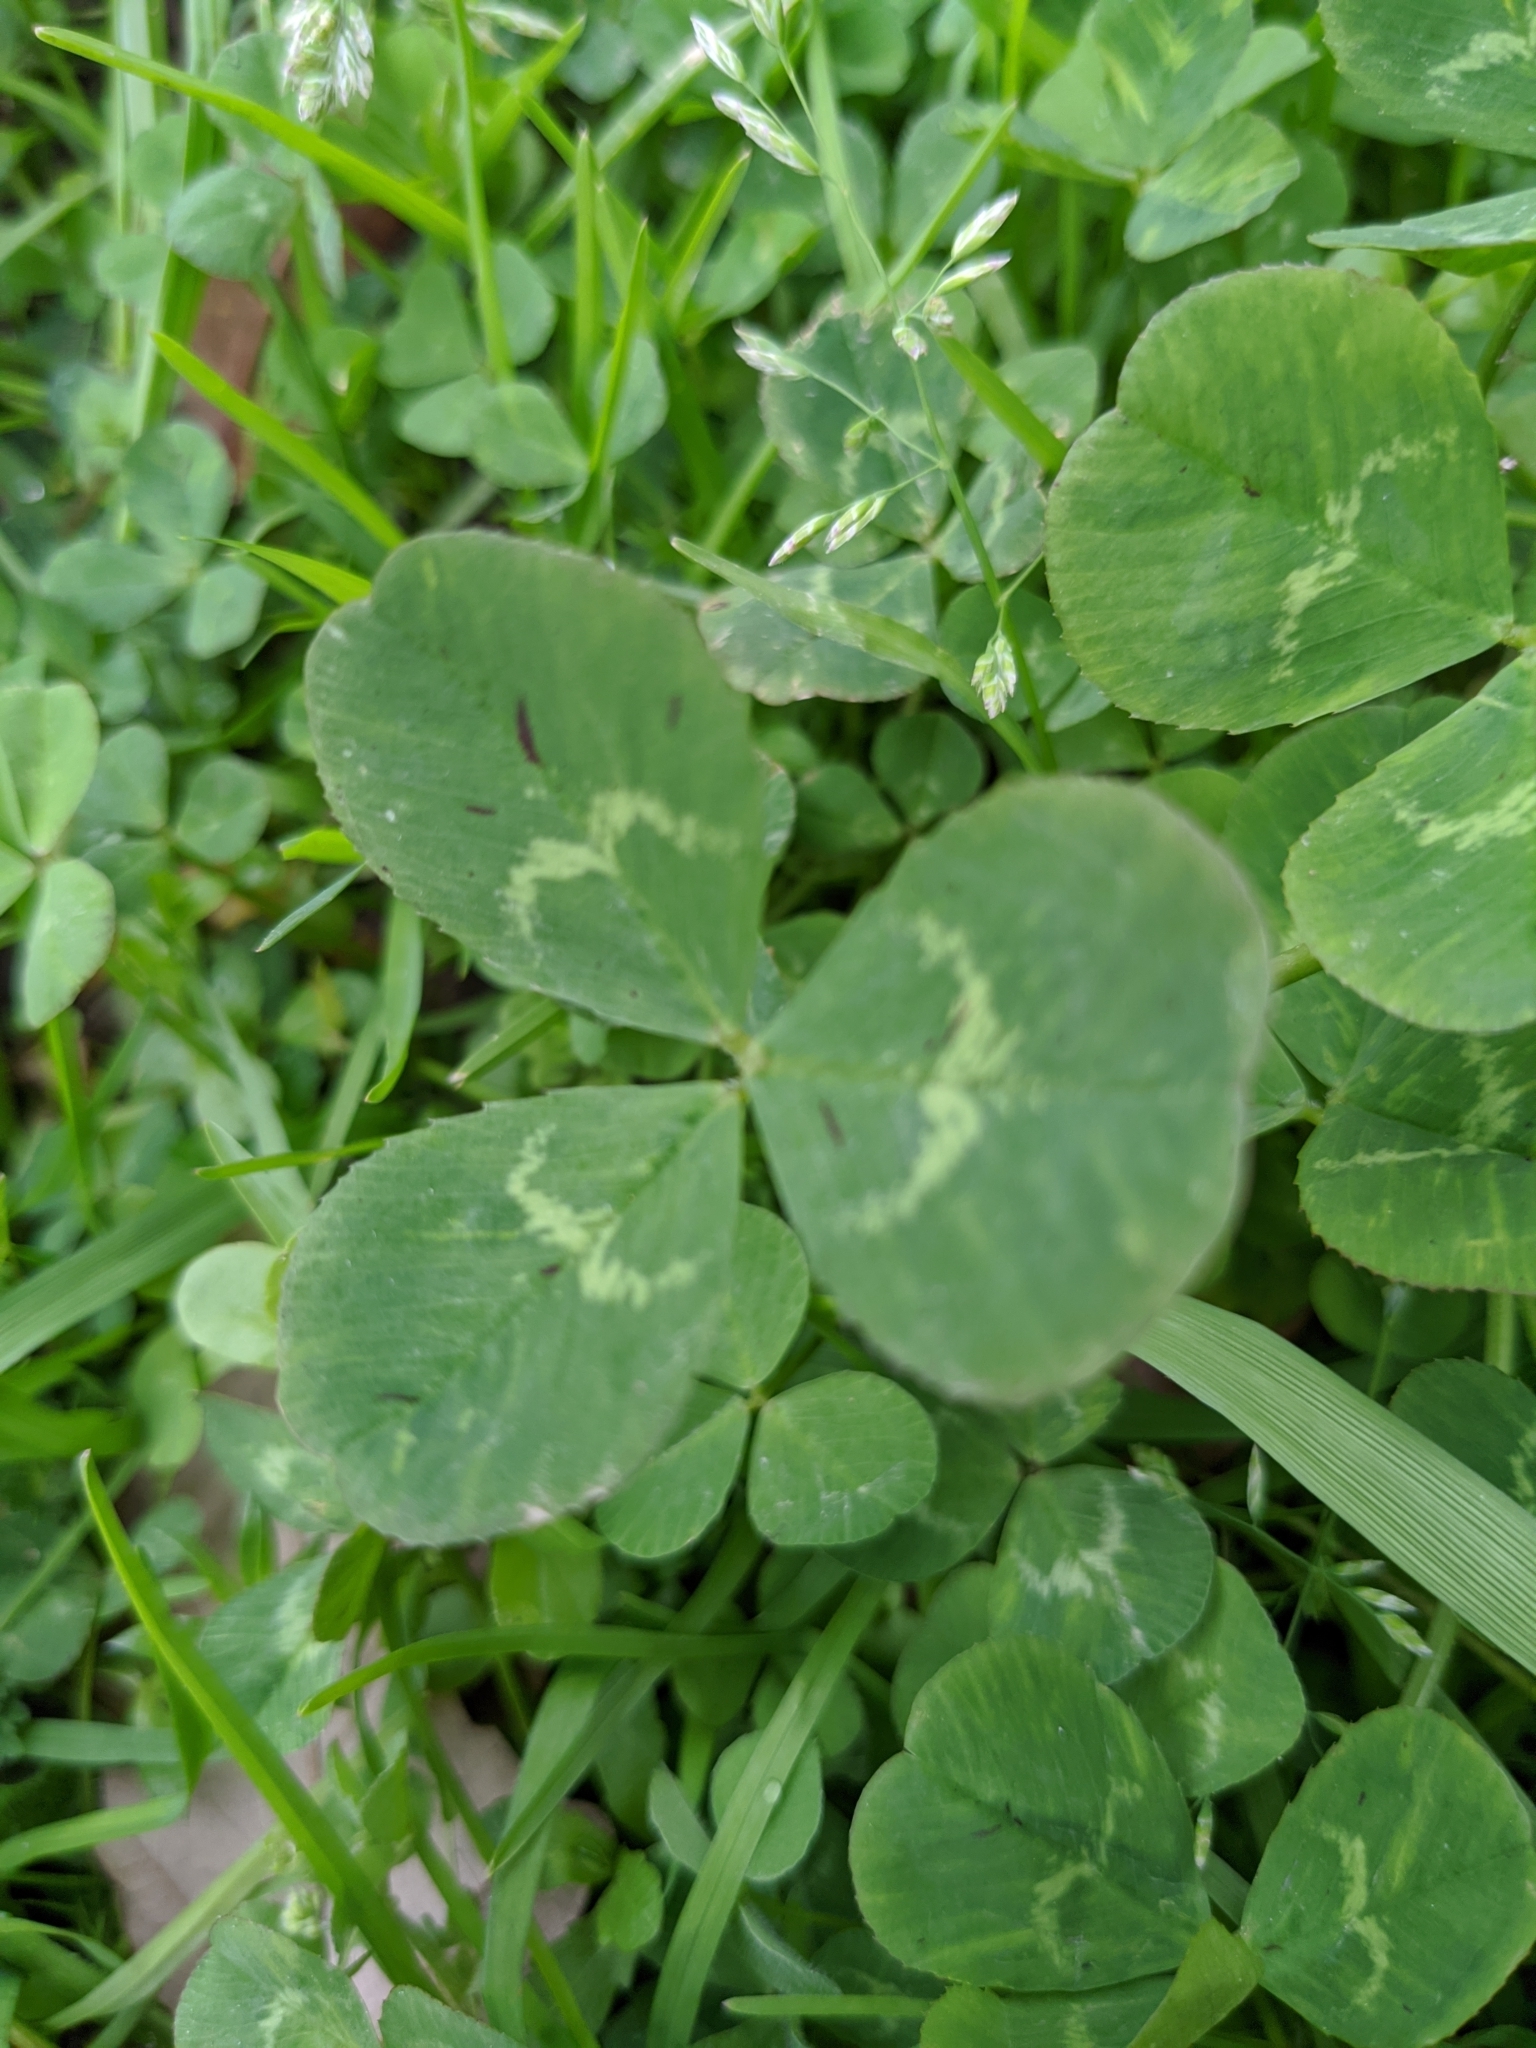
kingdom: Plantae
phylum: Tracheophyta
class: Magnoliopsida
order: Fabales
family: Fabaceae
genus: Trifolium
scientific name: Trifolium repens
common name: White clover
